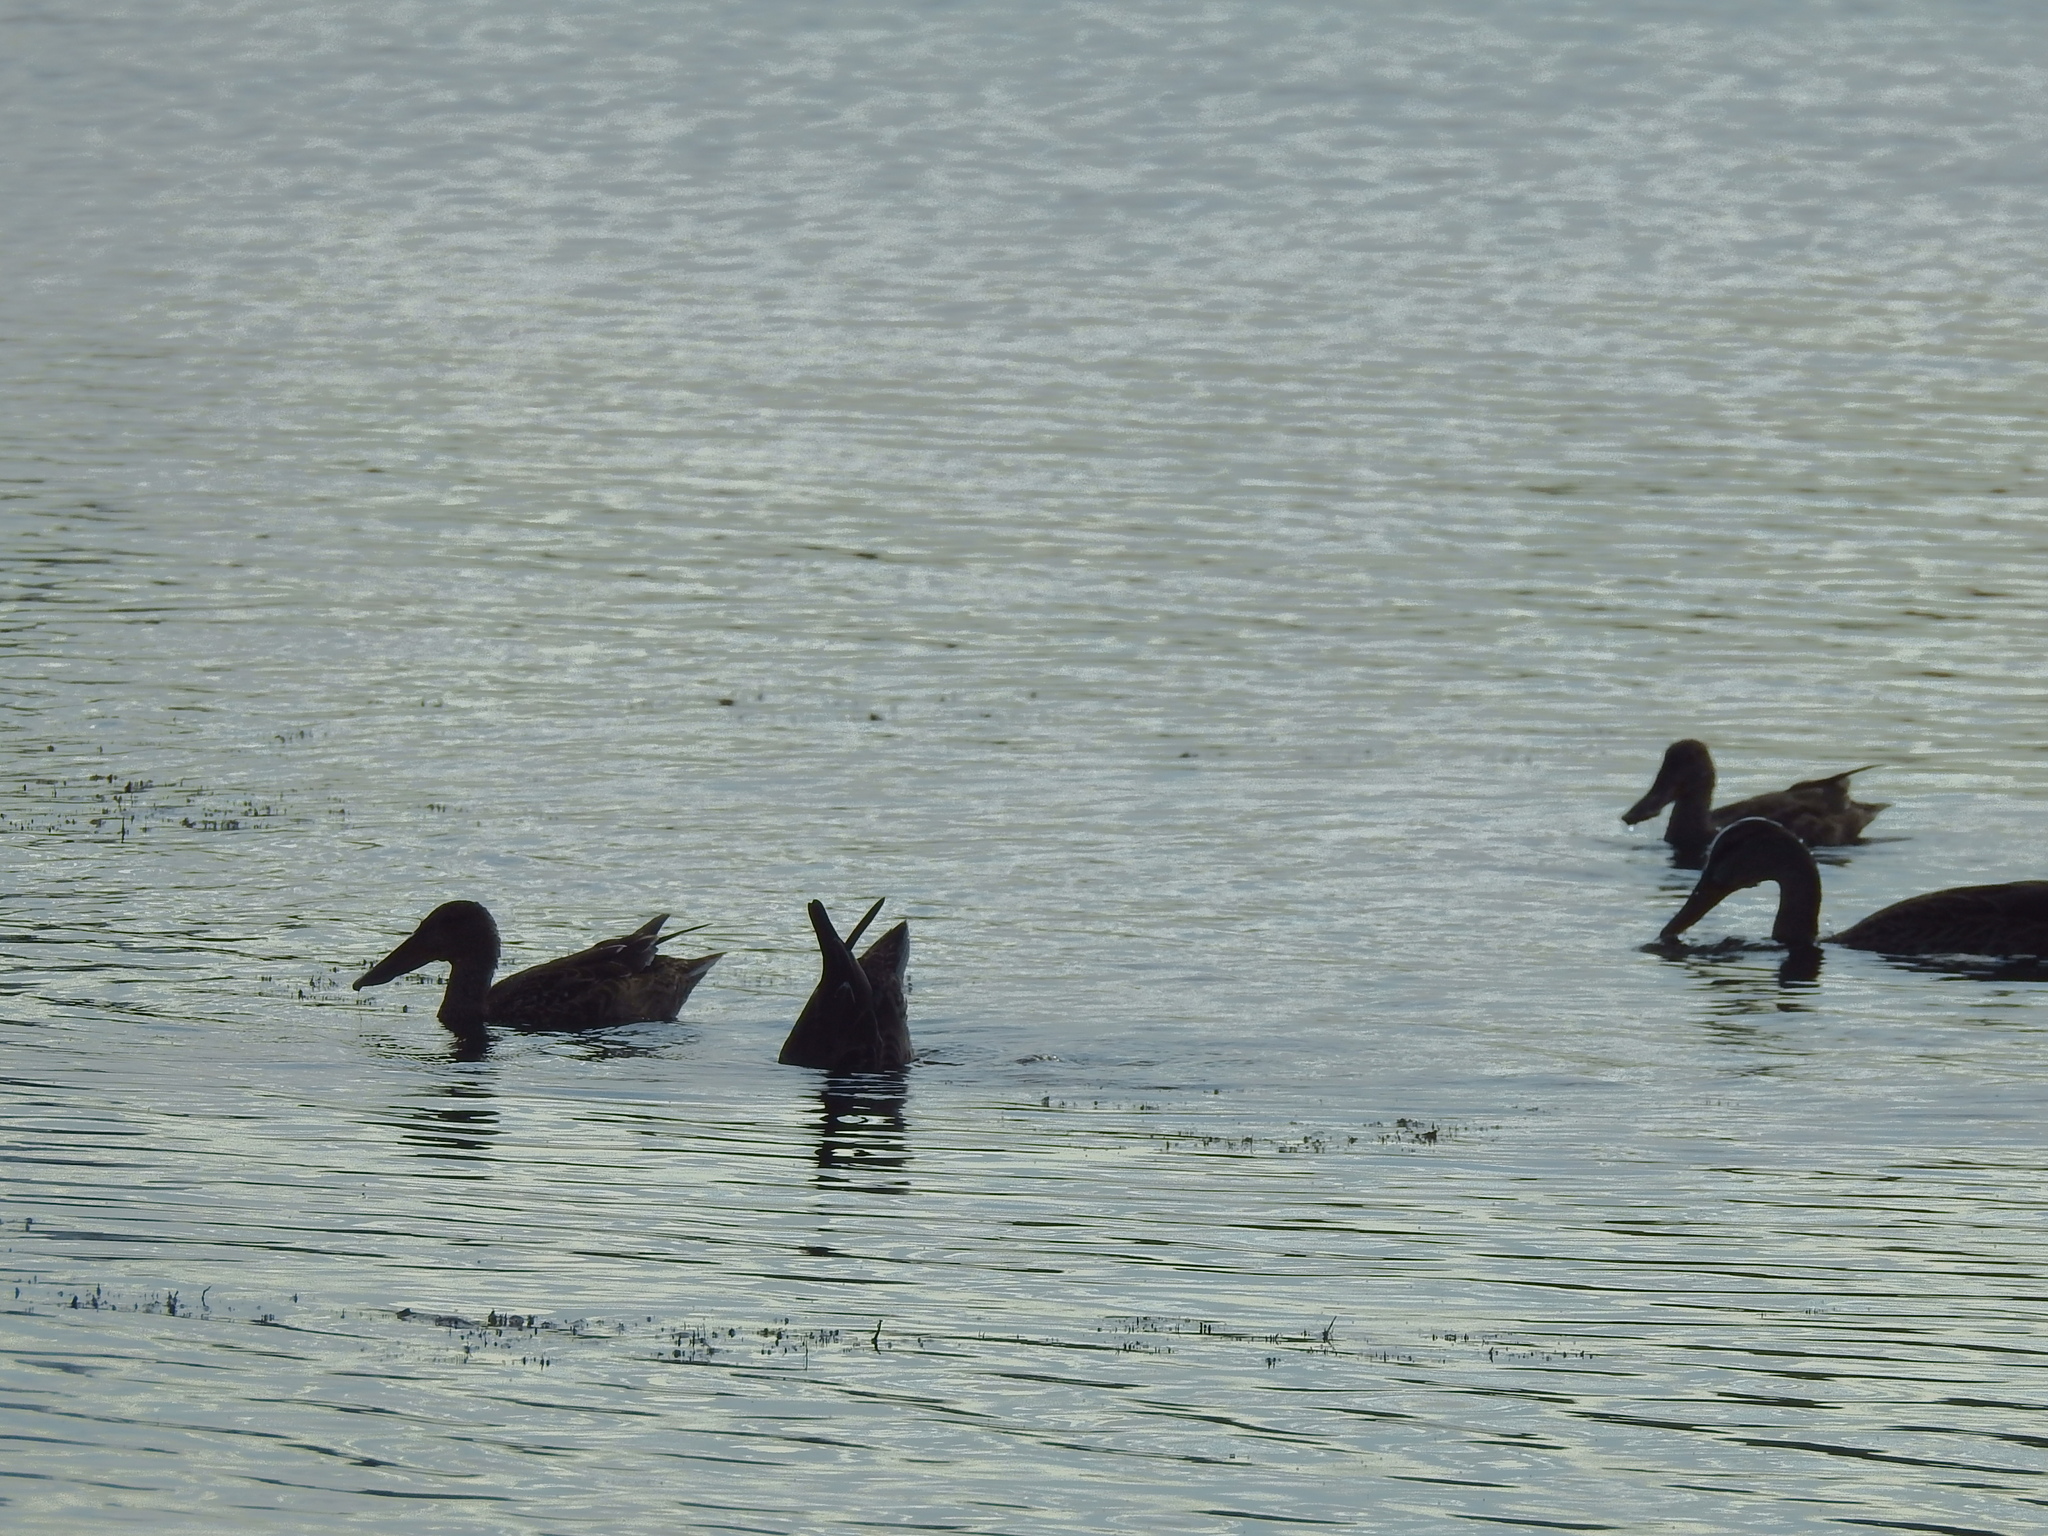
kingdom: Animalia
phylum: Chordata
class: Aves
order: Anseriformes
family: Anatidae
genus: Spatula
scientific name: Spatula clypeata
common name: Northern shoveler
